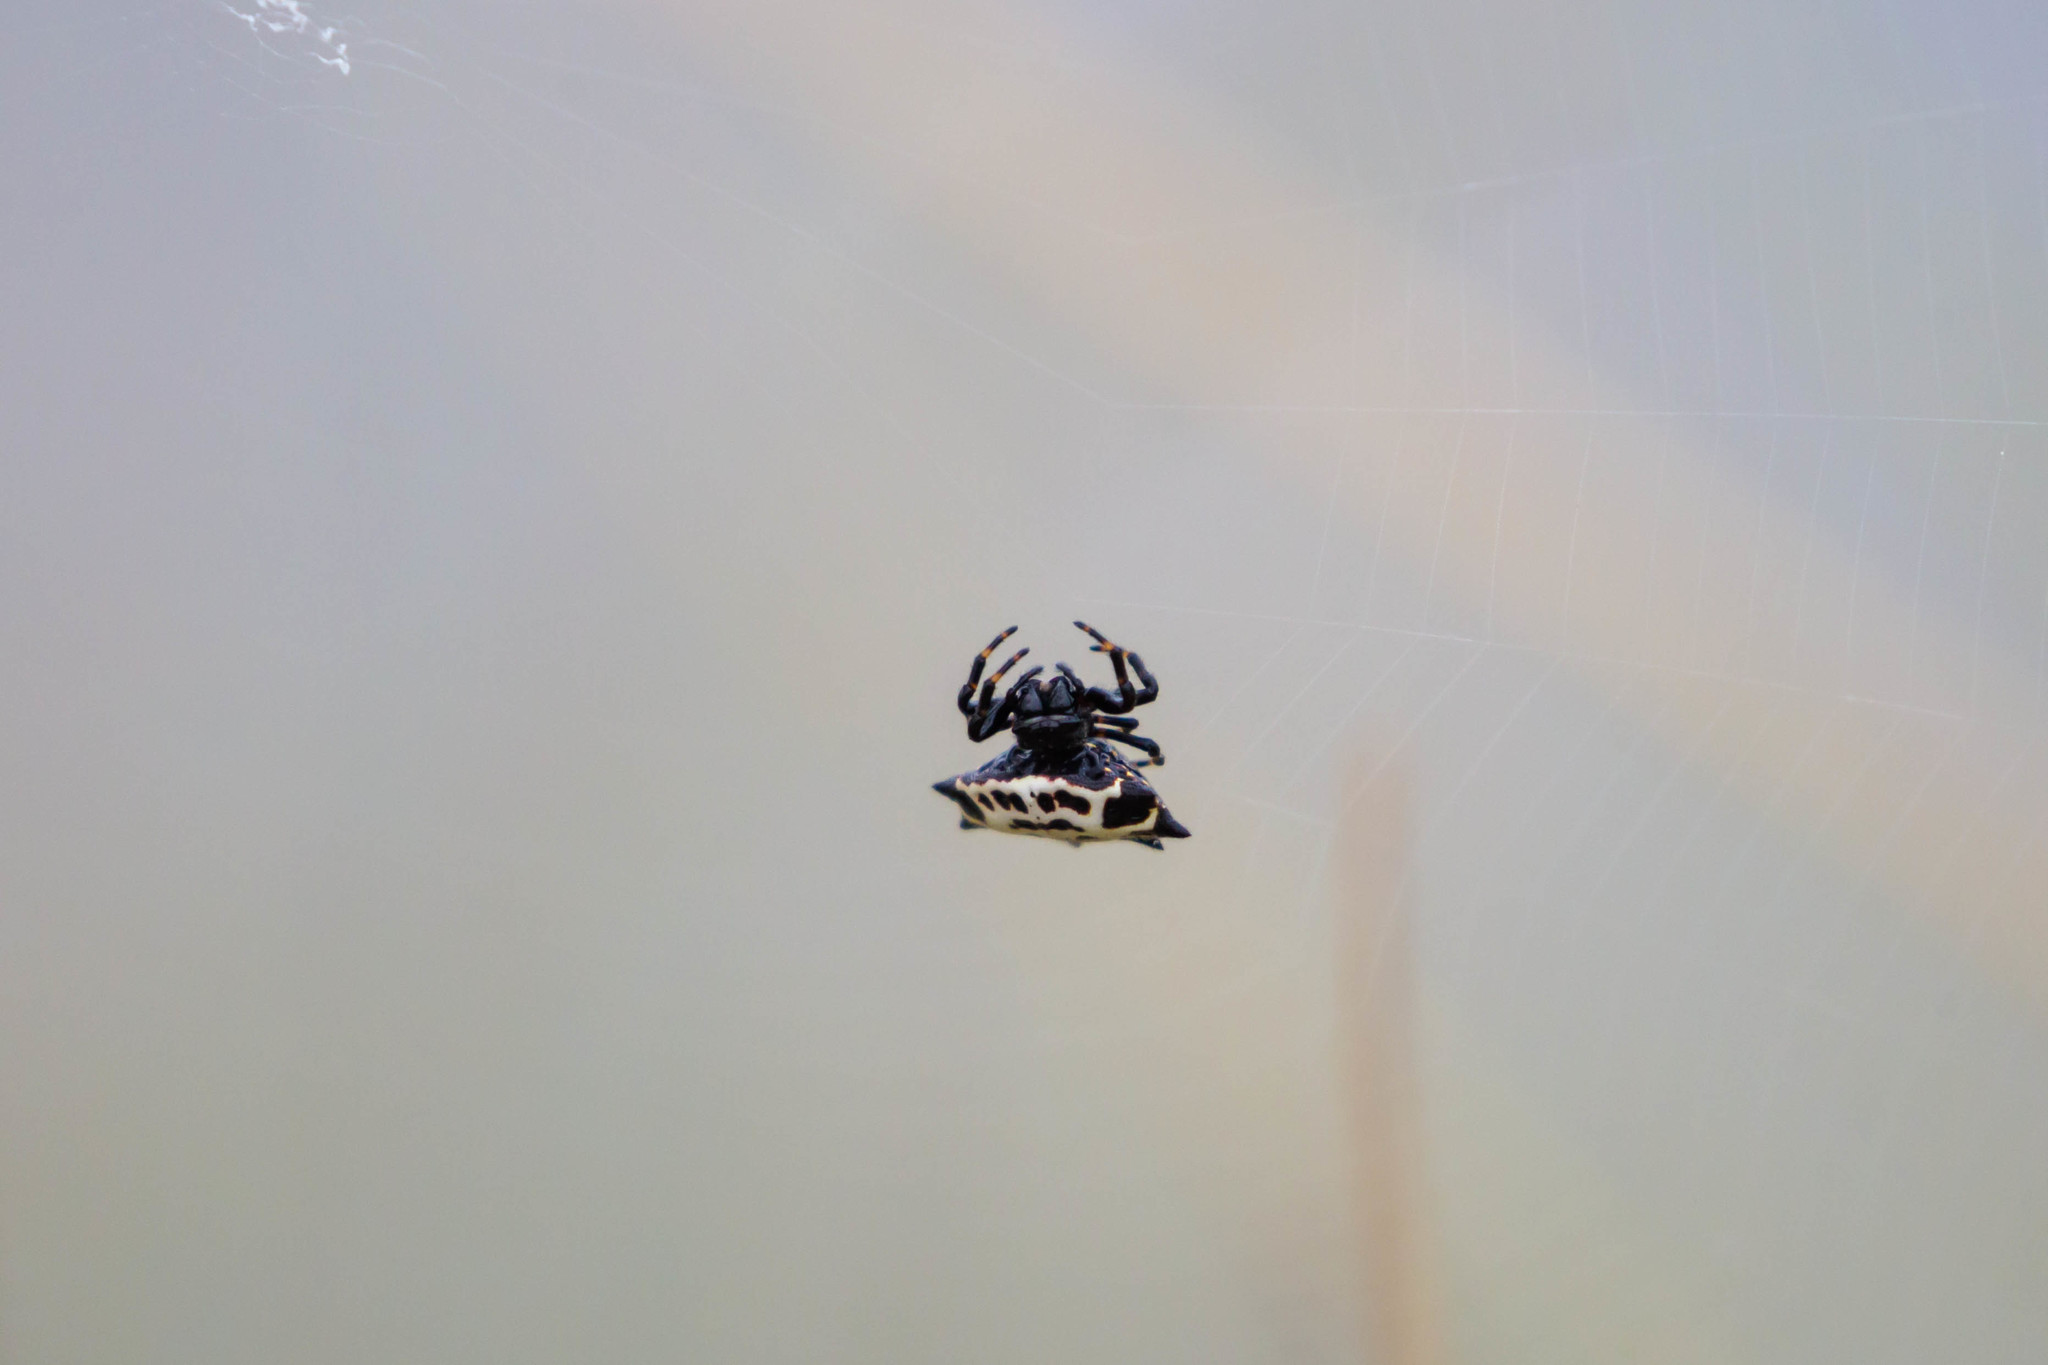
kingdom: Animalia
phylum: Arthropoda
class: Arachnida
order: Araneae
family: Araneidae
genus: Gasteracantha
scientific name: Gasteracantha cancriformis
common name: Orb weavers
